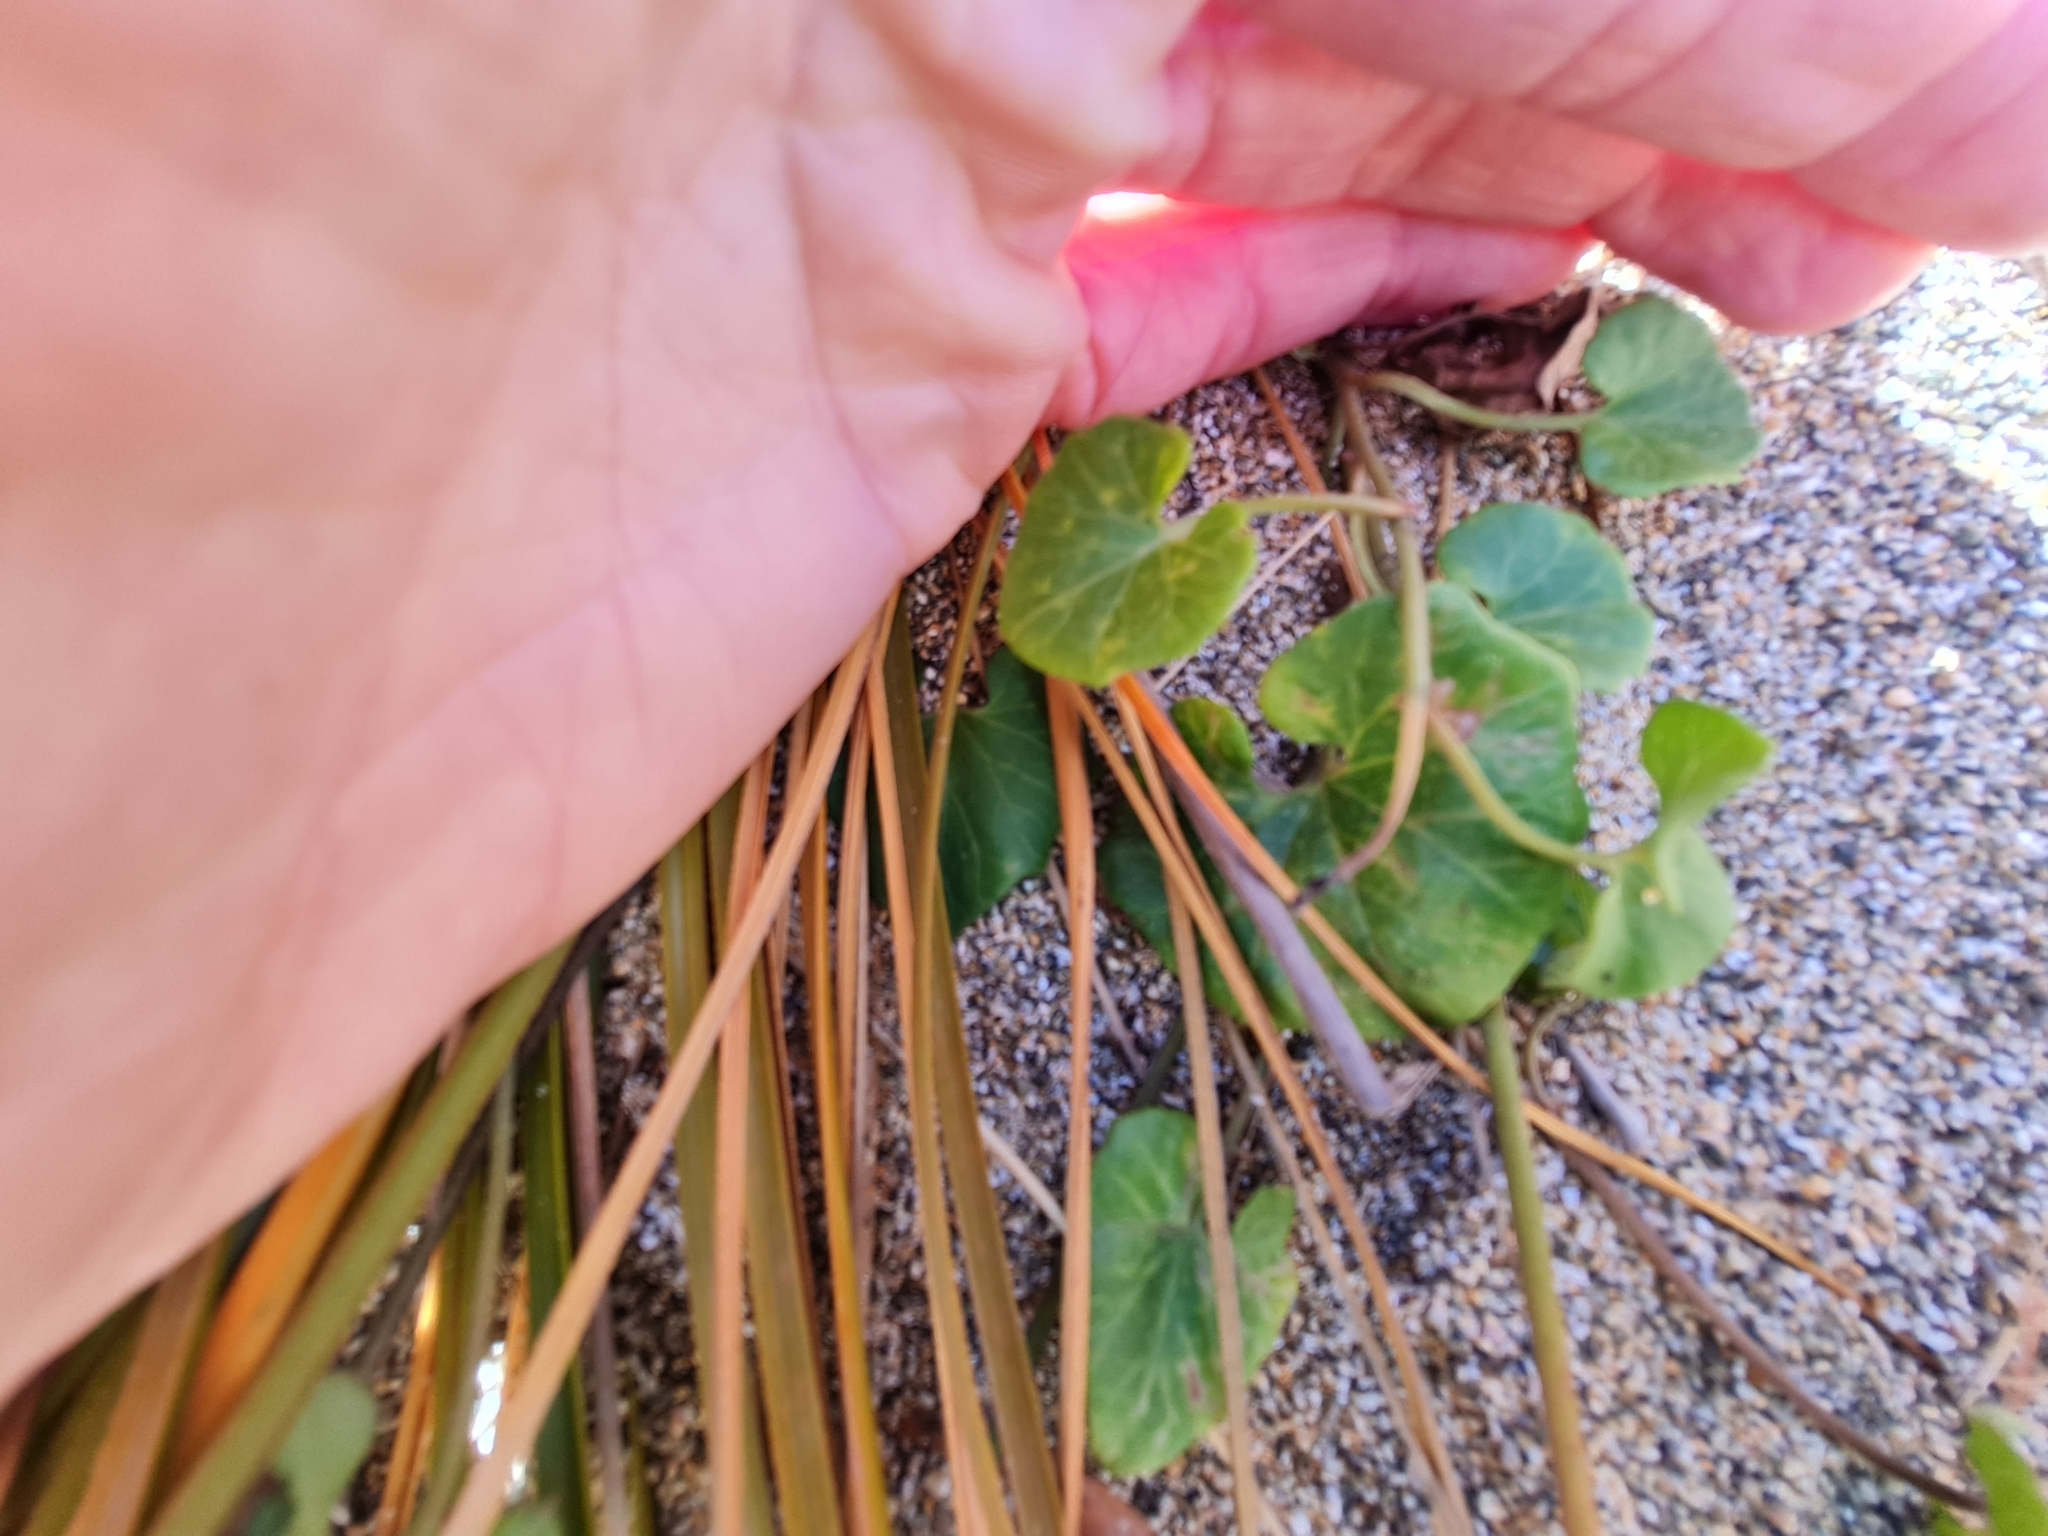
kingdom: Plantae
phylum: Tracheophyta
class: Magnoliopsida
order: Solanales
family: Convolvulaceae
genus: Calystegia
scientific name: Calystegia soldanella
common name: Sea bindweed
